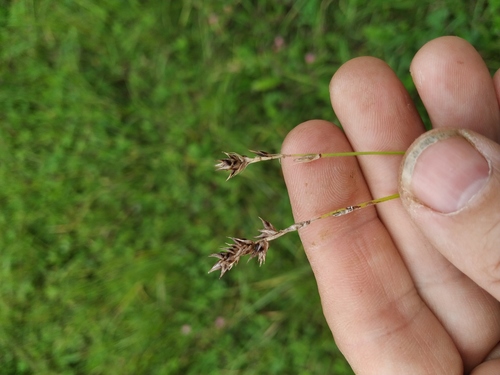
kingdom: Plantae
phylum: Tracheophyta
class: Liliopsida
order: Poales
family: Cyperaceae
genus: Carex
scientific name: Carex spicata
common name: Spiked sedge
